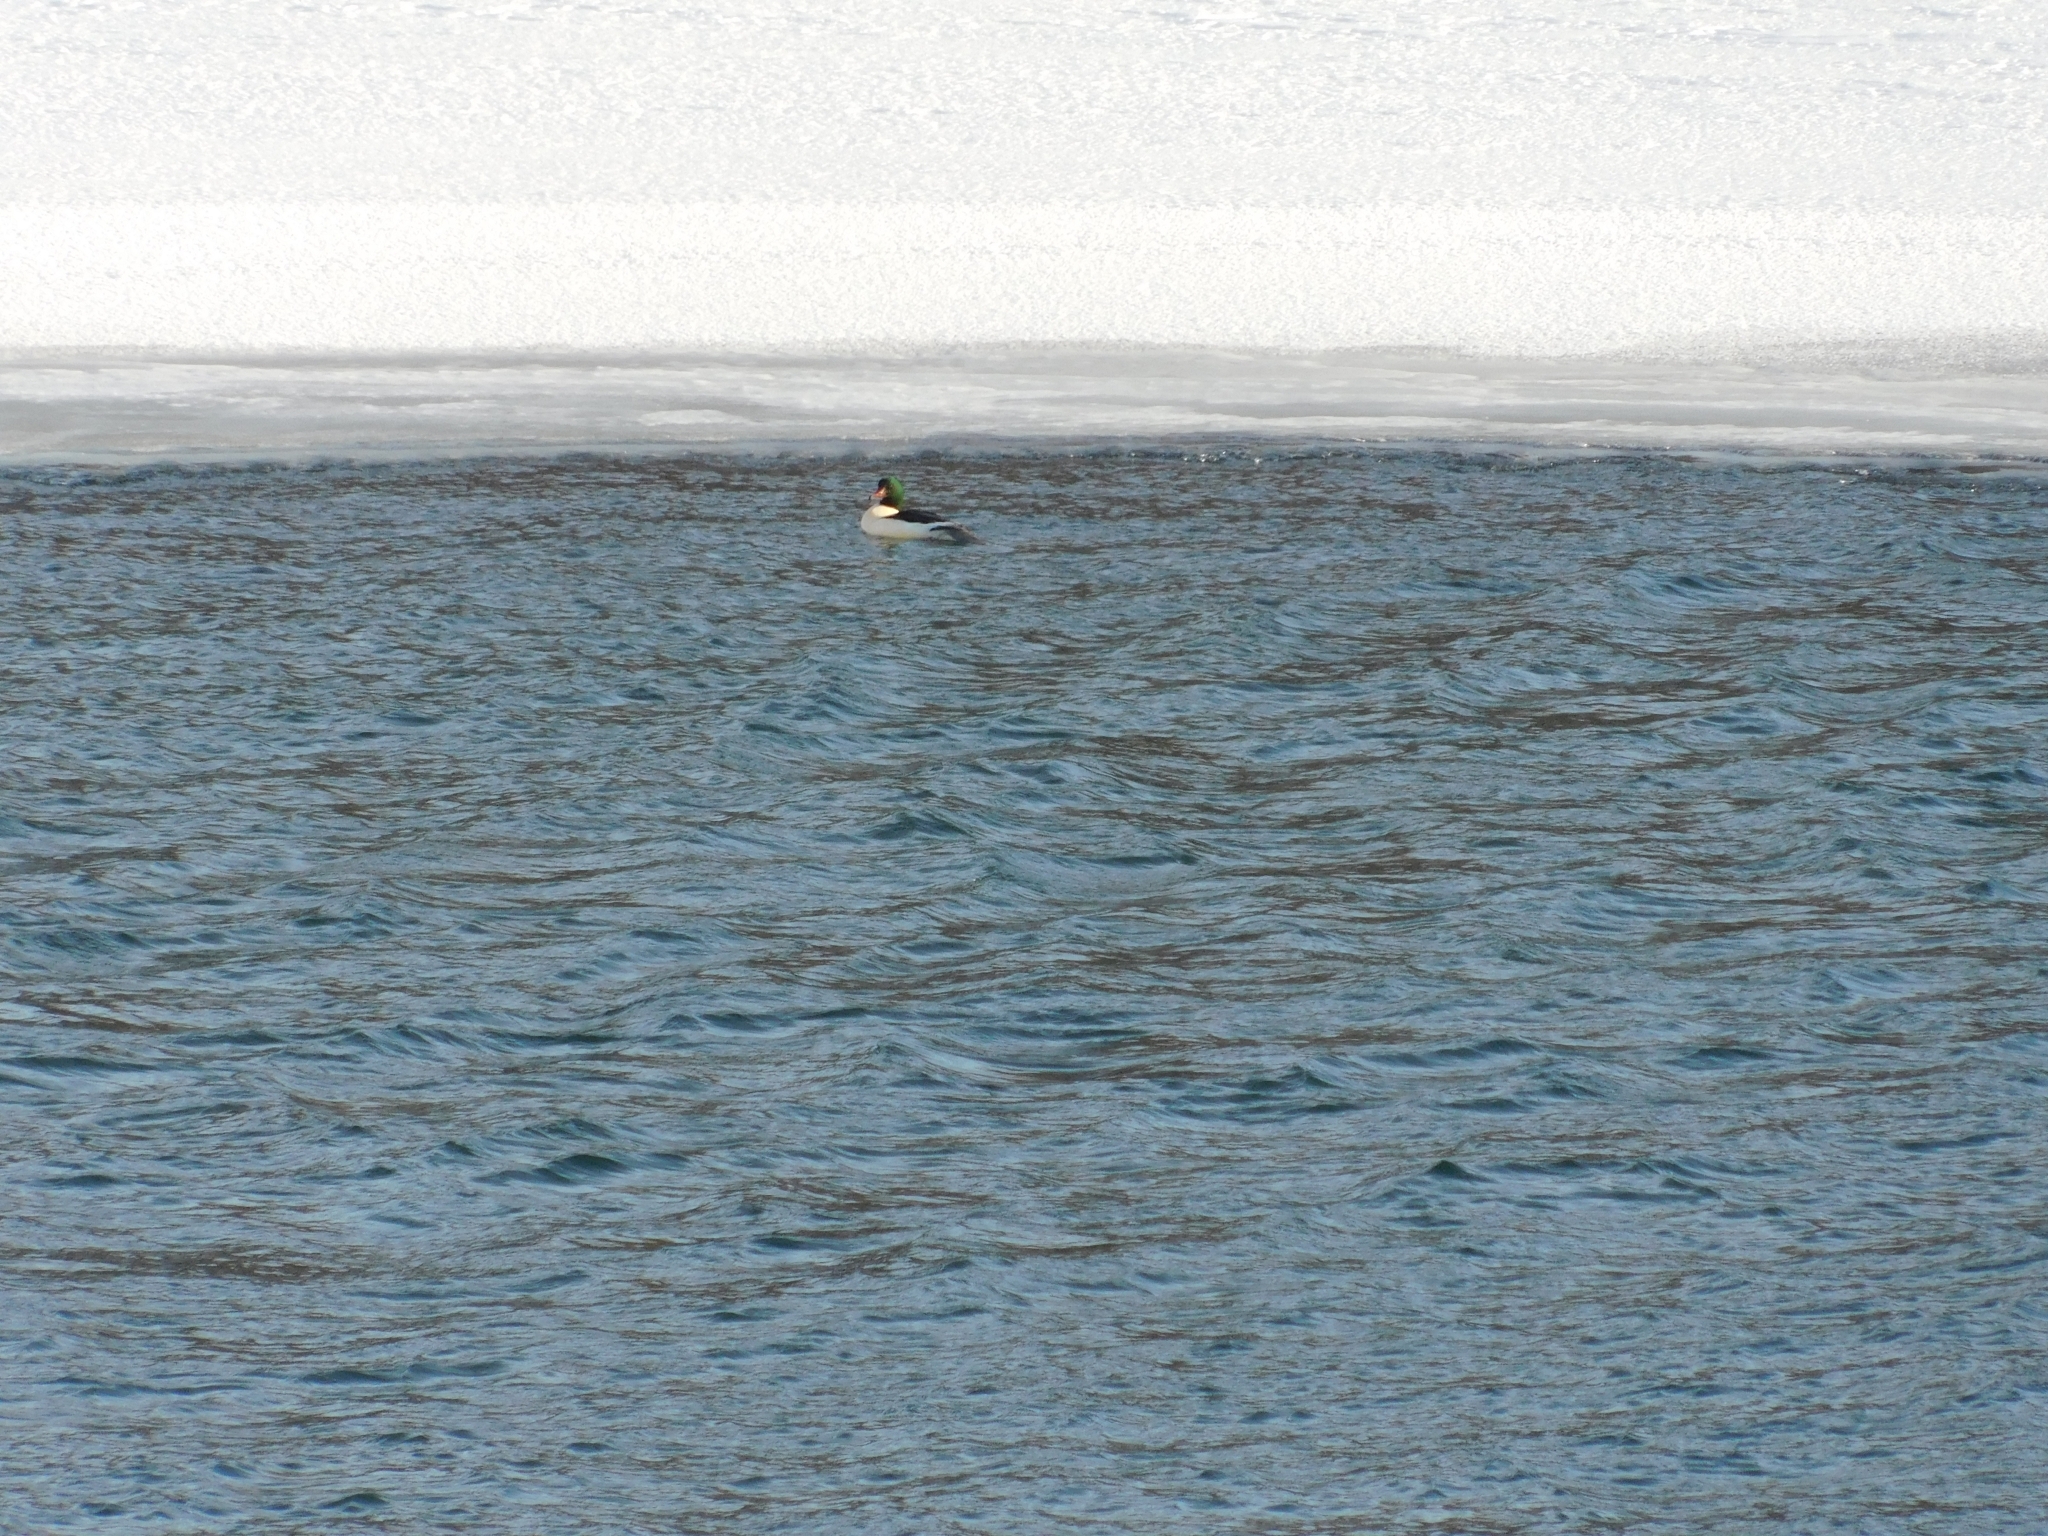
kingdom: Animalia
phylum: Chordata
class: Aves
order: Anseriformes
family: Anatidae
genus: Mergus
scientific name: Mergus merganser
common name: Common merganser
